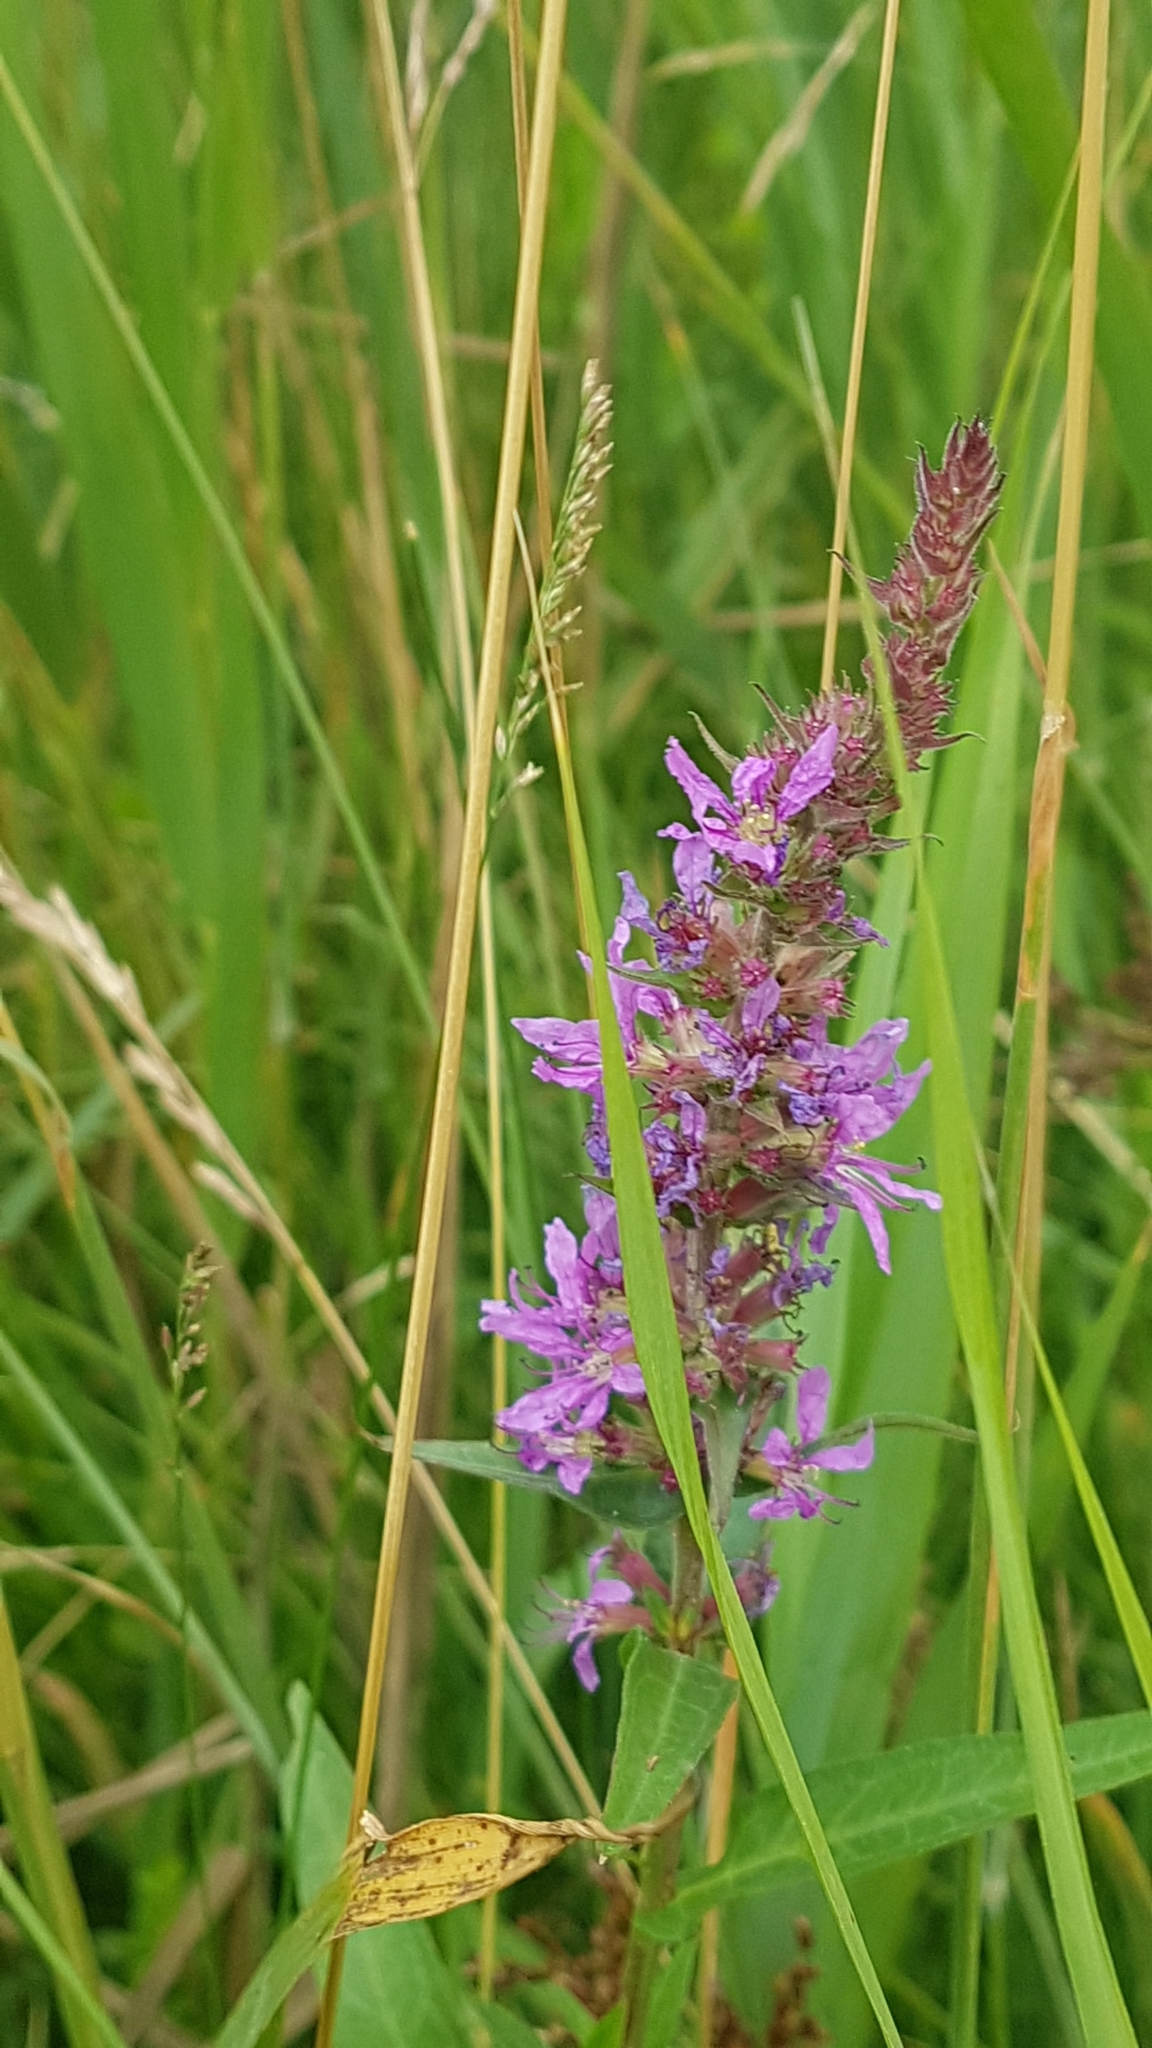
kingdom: Plantae
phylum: Tracheophyta
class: Magnoliopsida
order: Myrtales
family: Lythraceae
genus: Lythrum
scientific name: Lythrum salicaria
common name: Purple loosestrife
